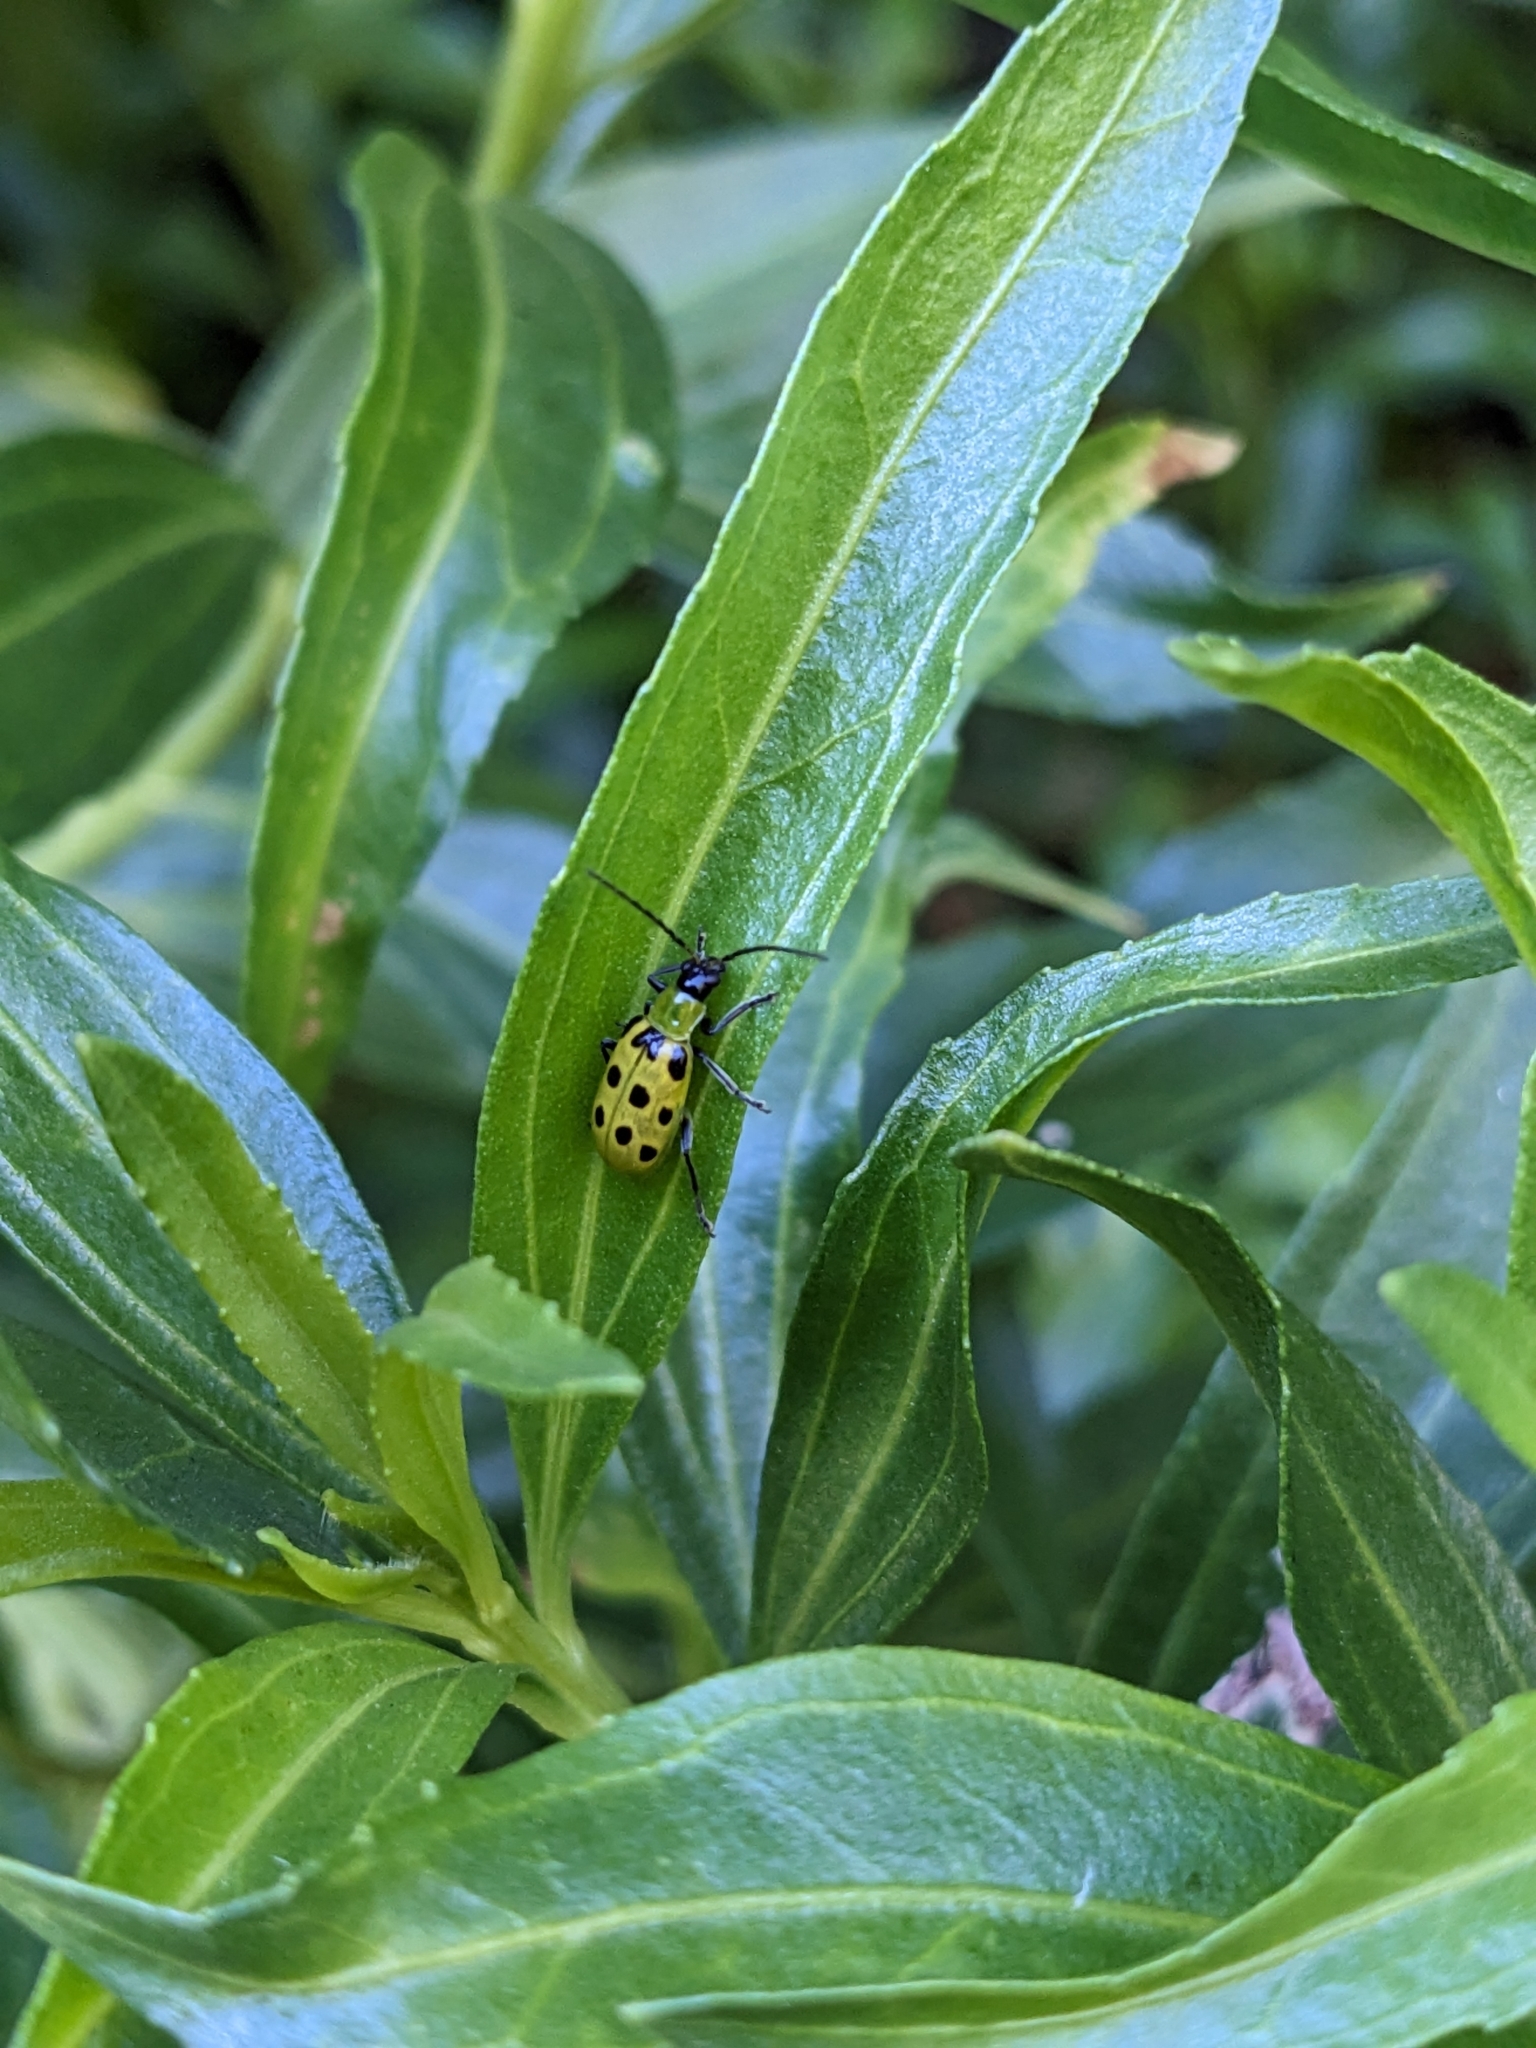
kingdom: Animalia
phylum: Arthropoda
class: Insecta
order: Coleoptera
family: Chrysomelidae
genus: Diabrotica
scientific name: Diabrotica undecimpunctata
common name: Spotted cucumber beetle
